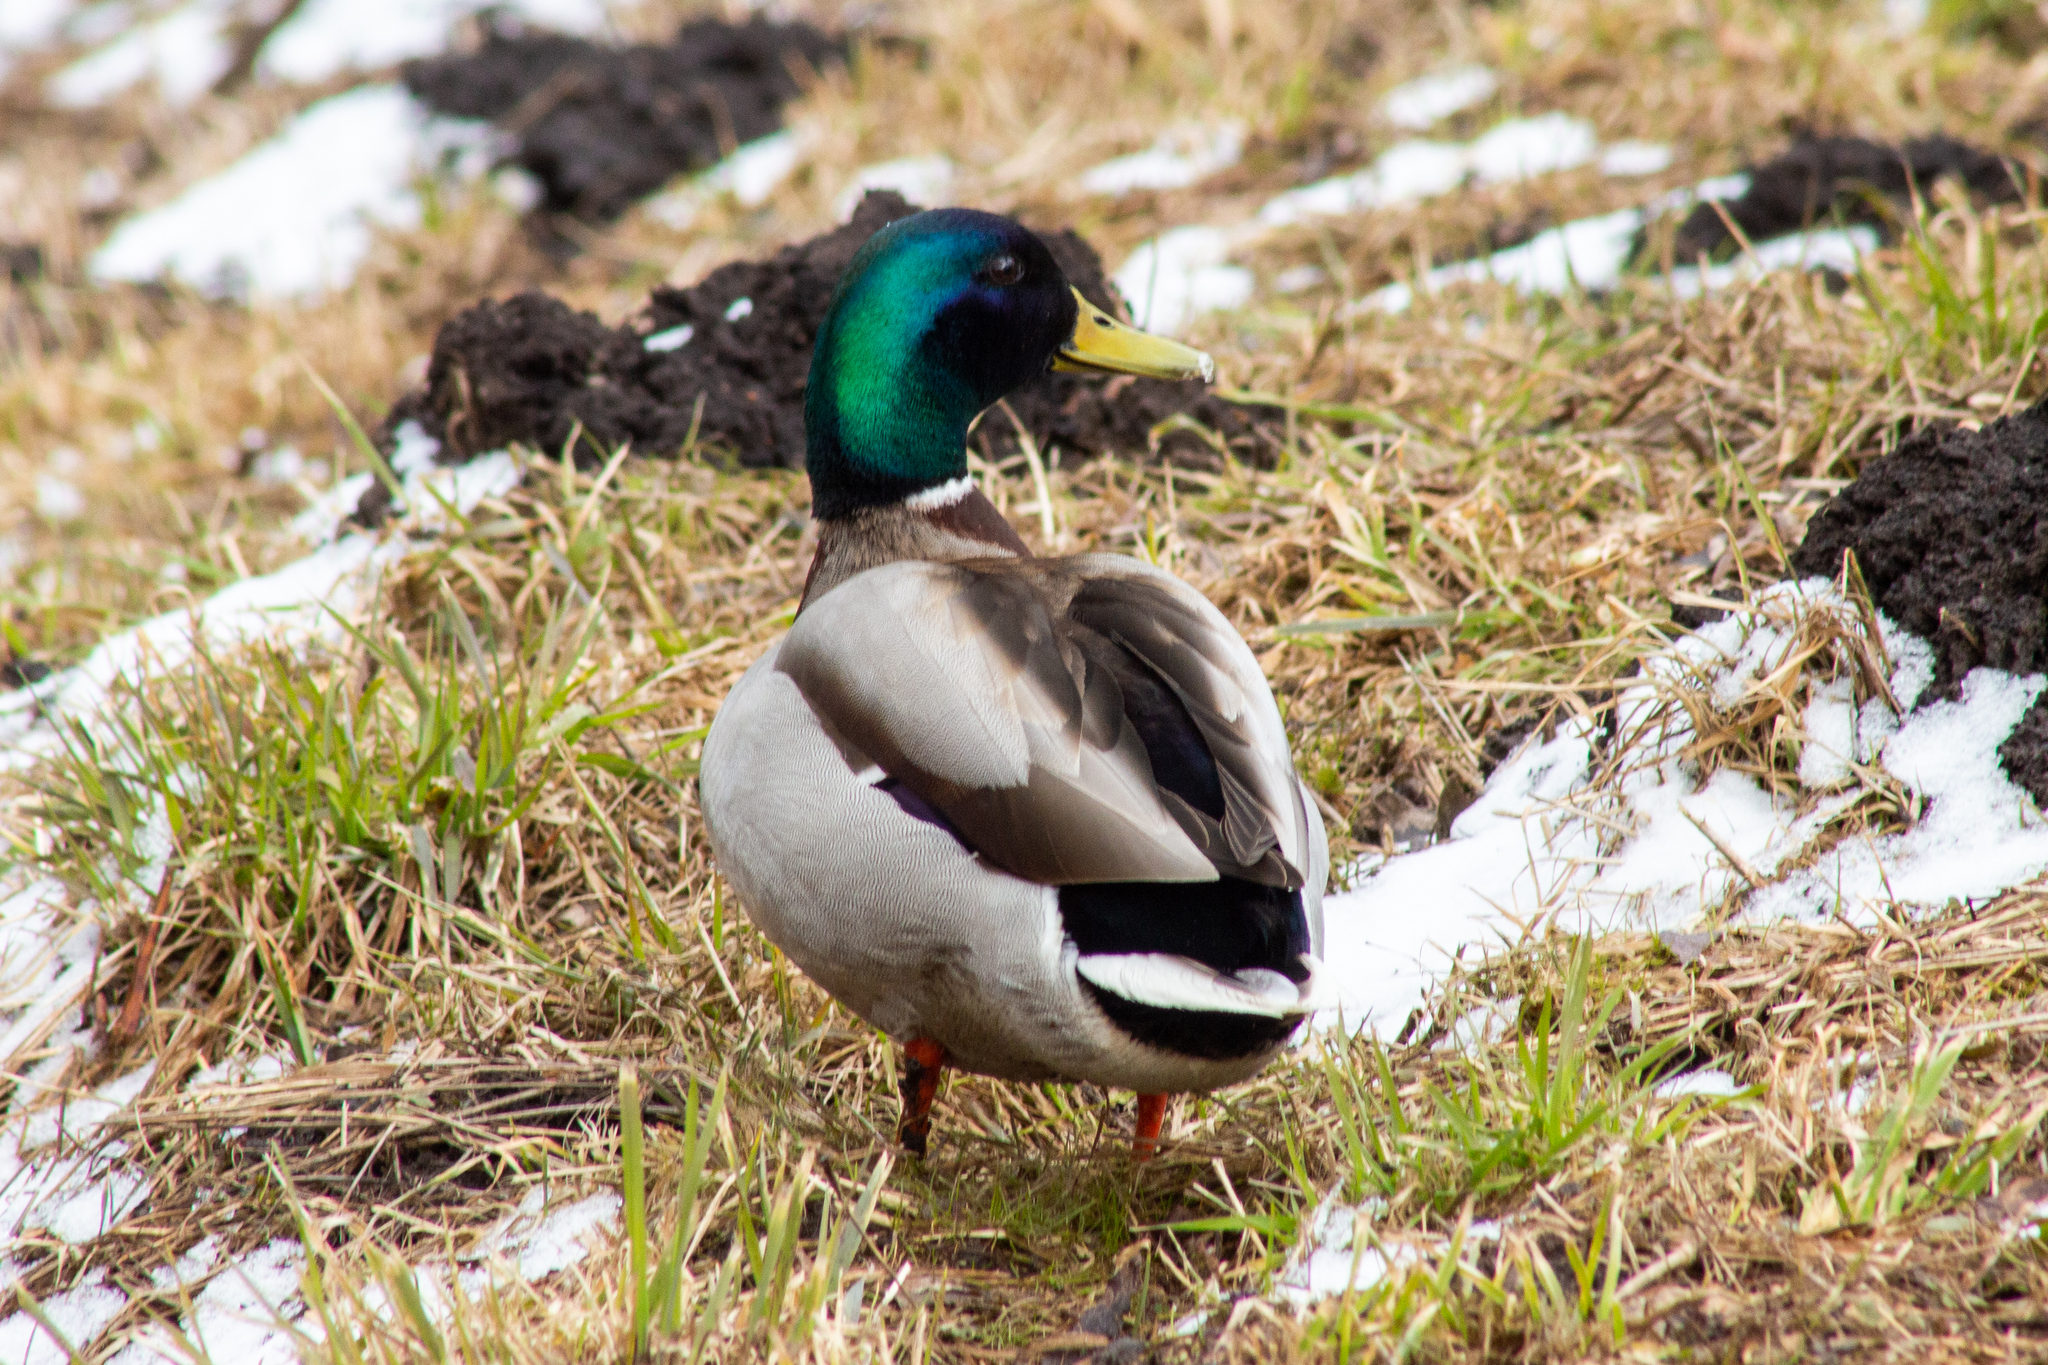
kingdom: Animalia
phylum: Chordata
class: Aves
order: Anseriformes
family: Anatidae
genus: Anas
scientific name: Anas platyrhynchos
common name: Mallard
